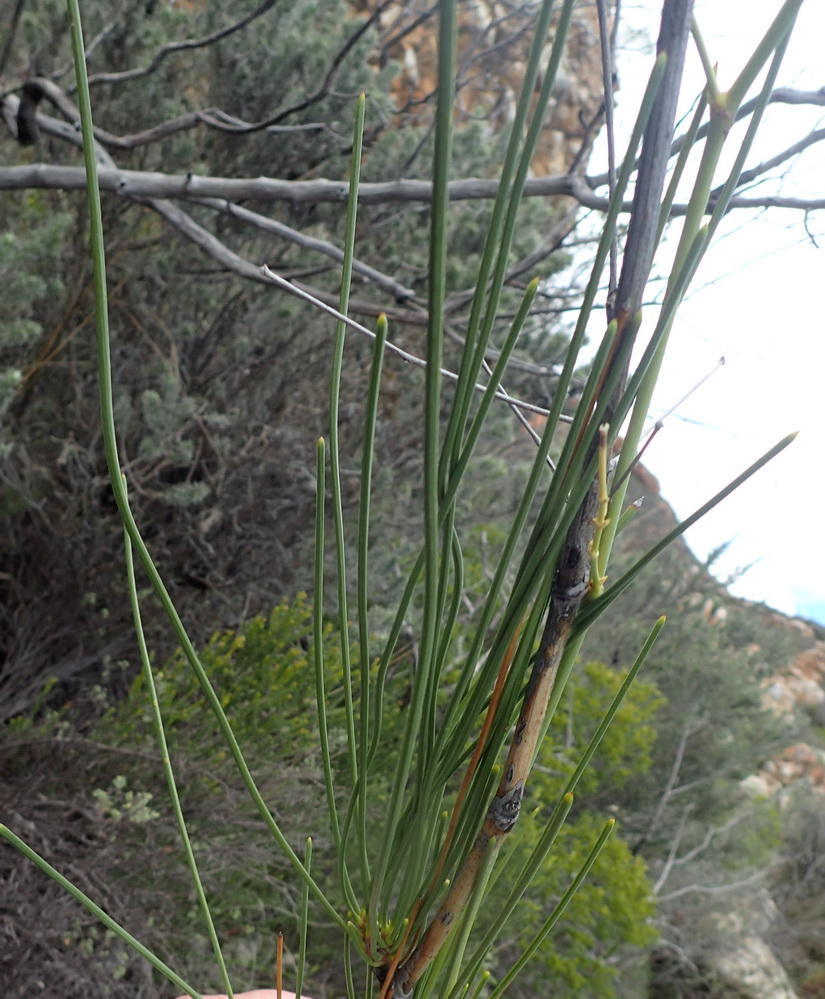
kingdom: Plantae
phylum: Tracheophyta
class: Magnoliopsida
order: Apiales
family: Apiaceae
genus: Anginon
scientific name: Anginon difforme
